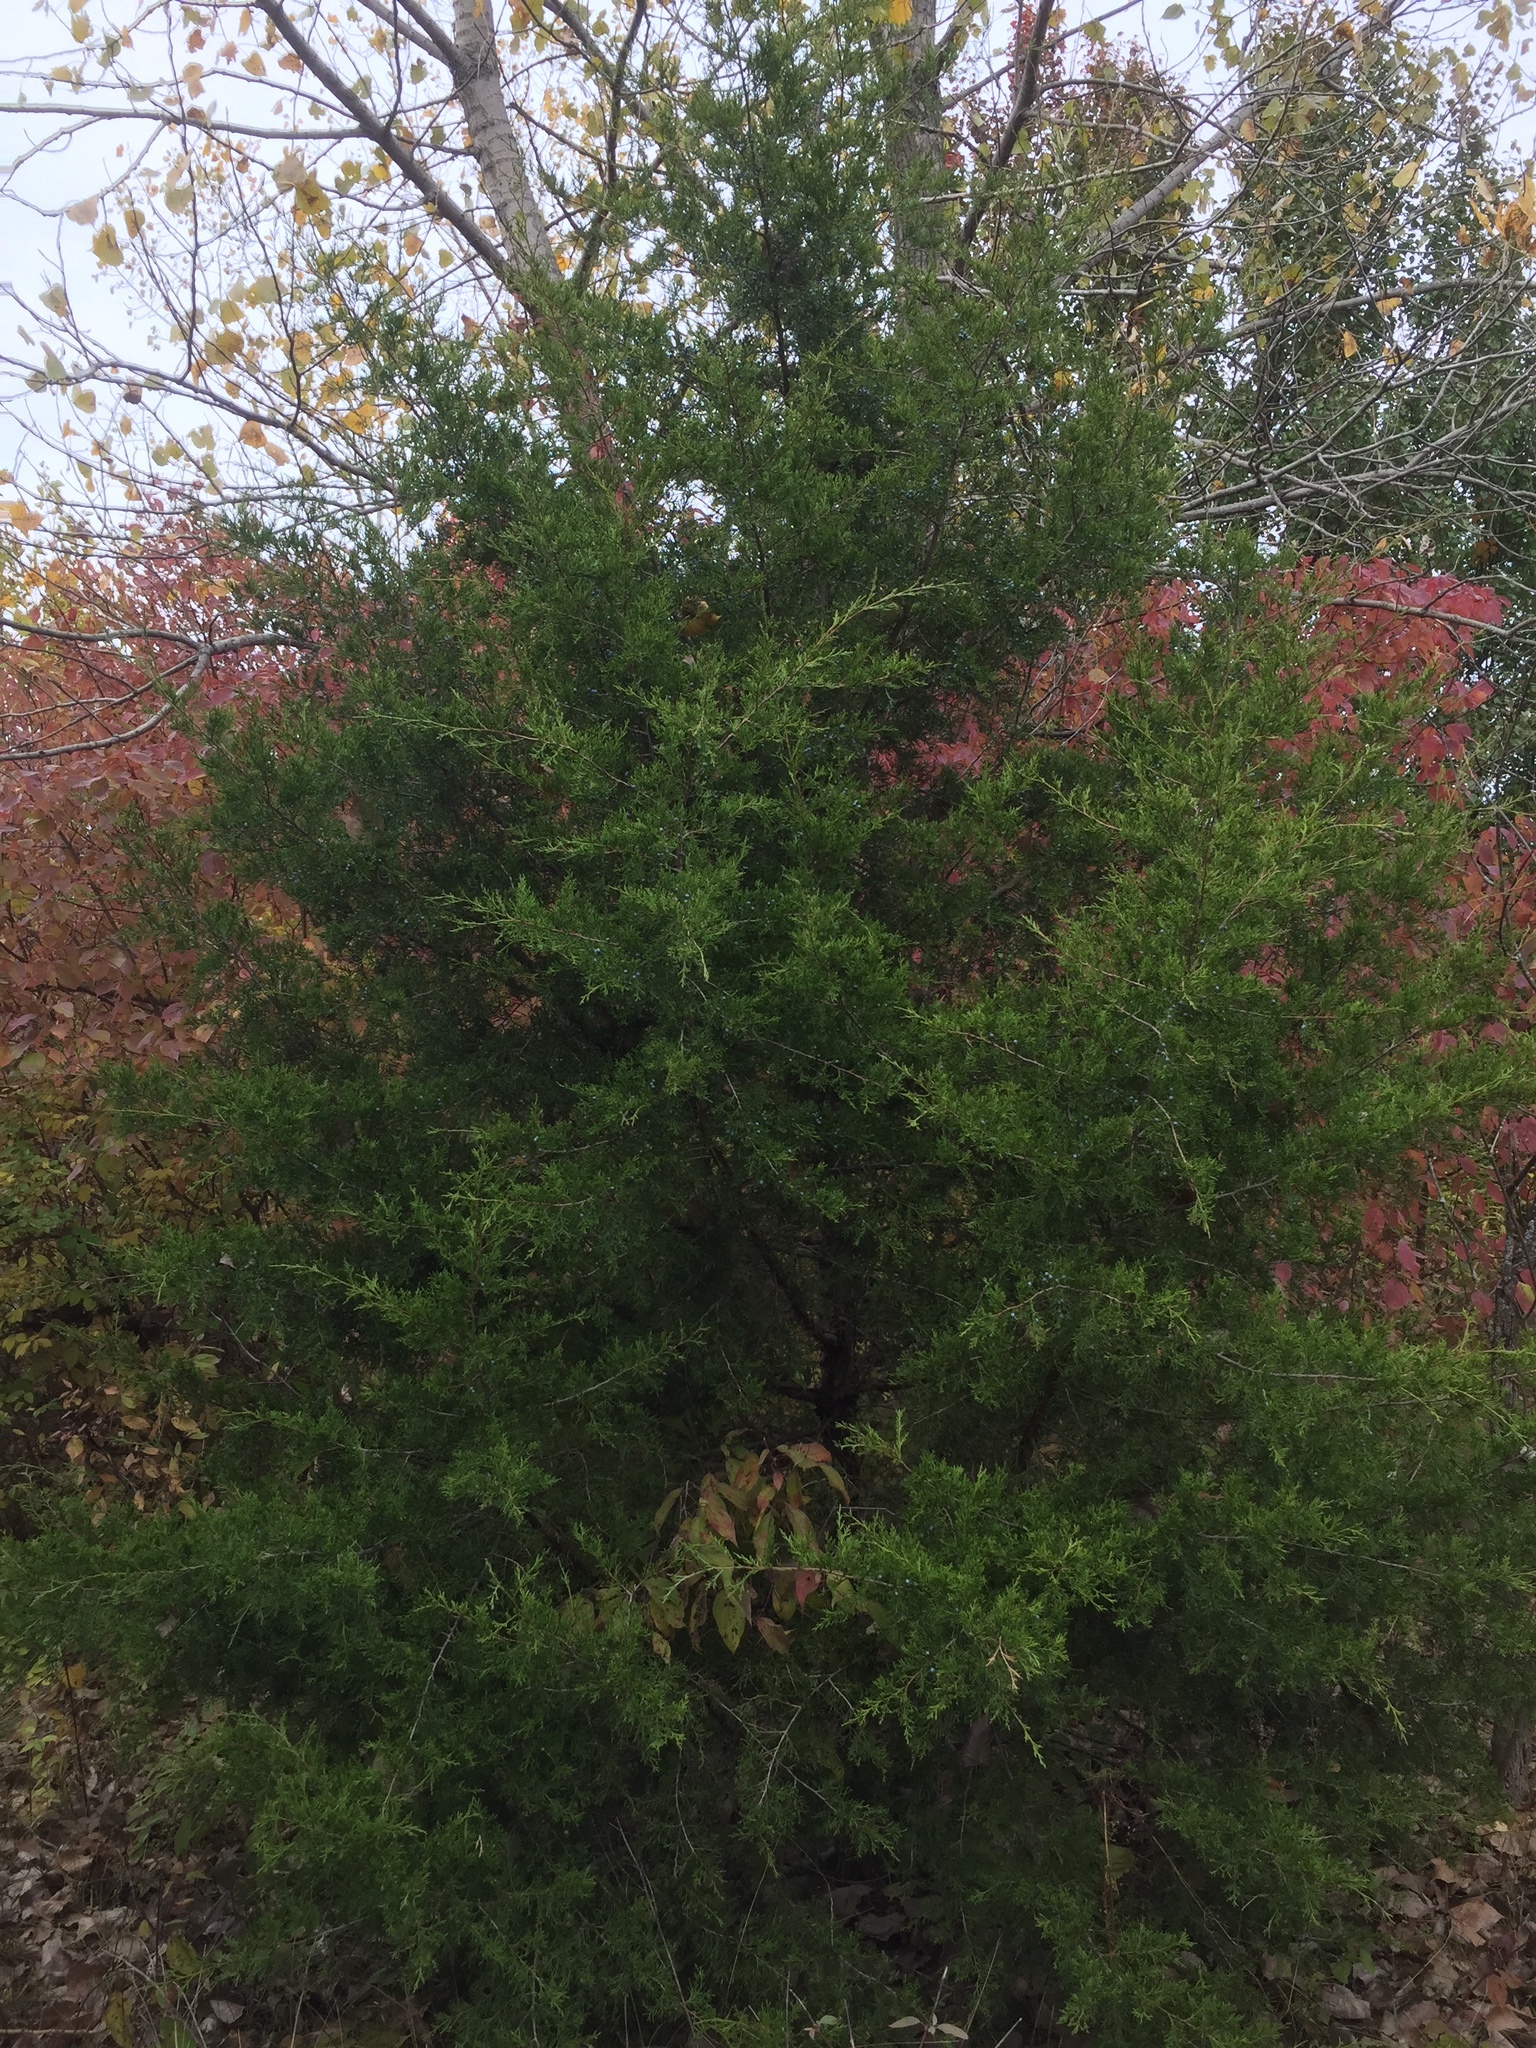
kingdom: Plantae
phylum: Tracheophyta
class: Pinopsida
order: Pinales
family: Cupressaceae
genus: Juniperus
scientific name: Juniperus virginiana
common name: Red juniper
